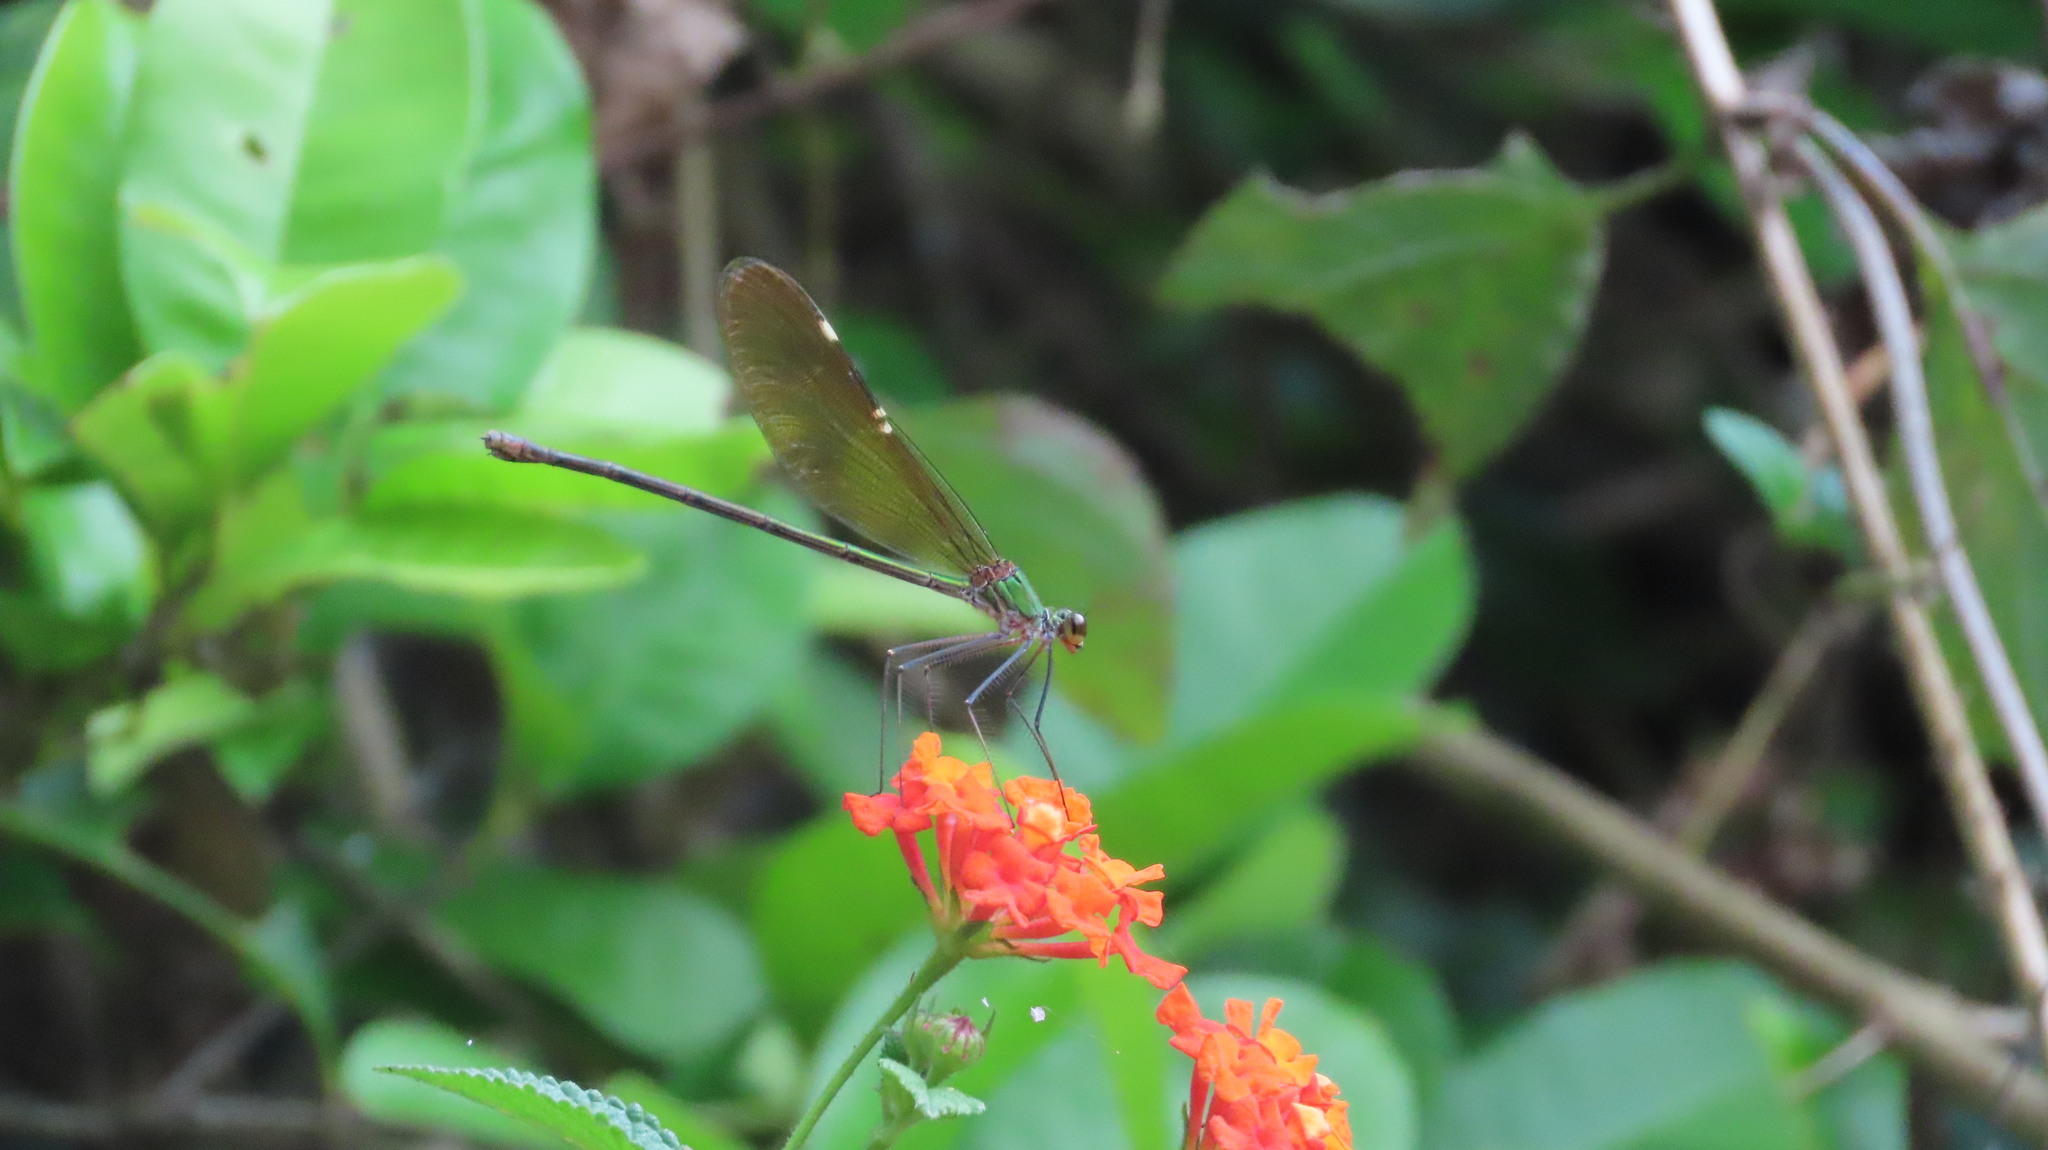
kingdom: Animalia
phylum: Arthropoda
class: Insecta
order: Odonata
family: Calopterygidae
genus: Neurobasis
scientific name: Neurobasis chinensis
